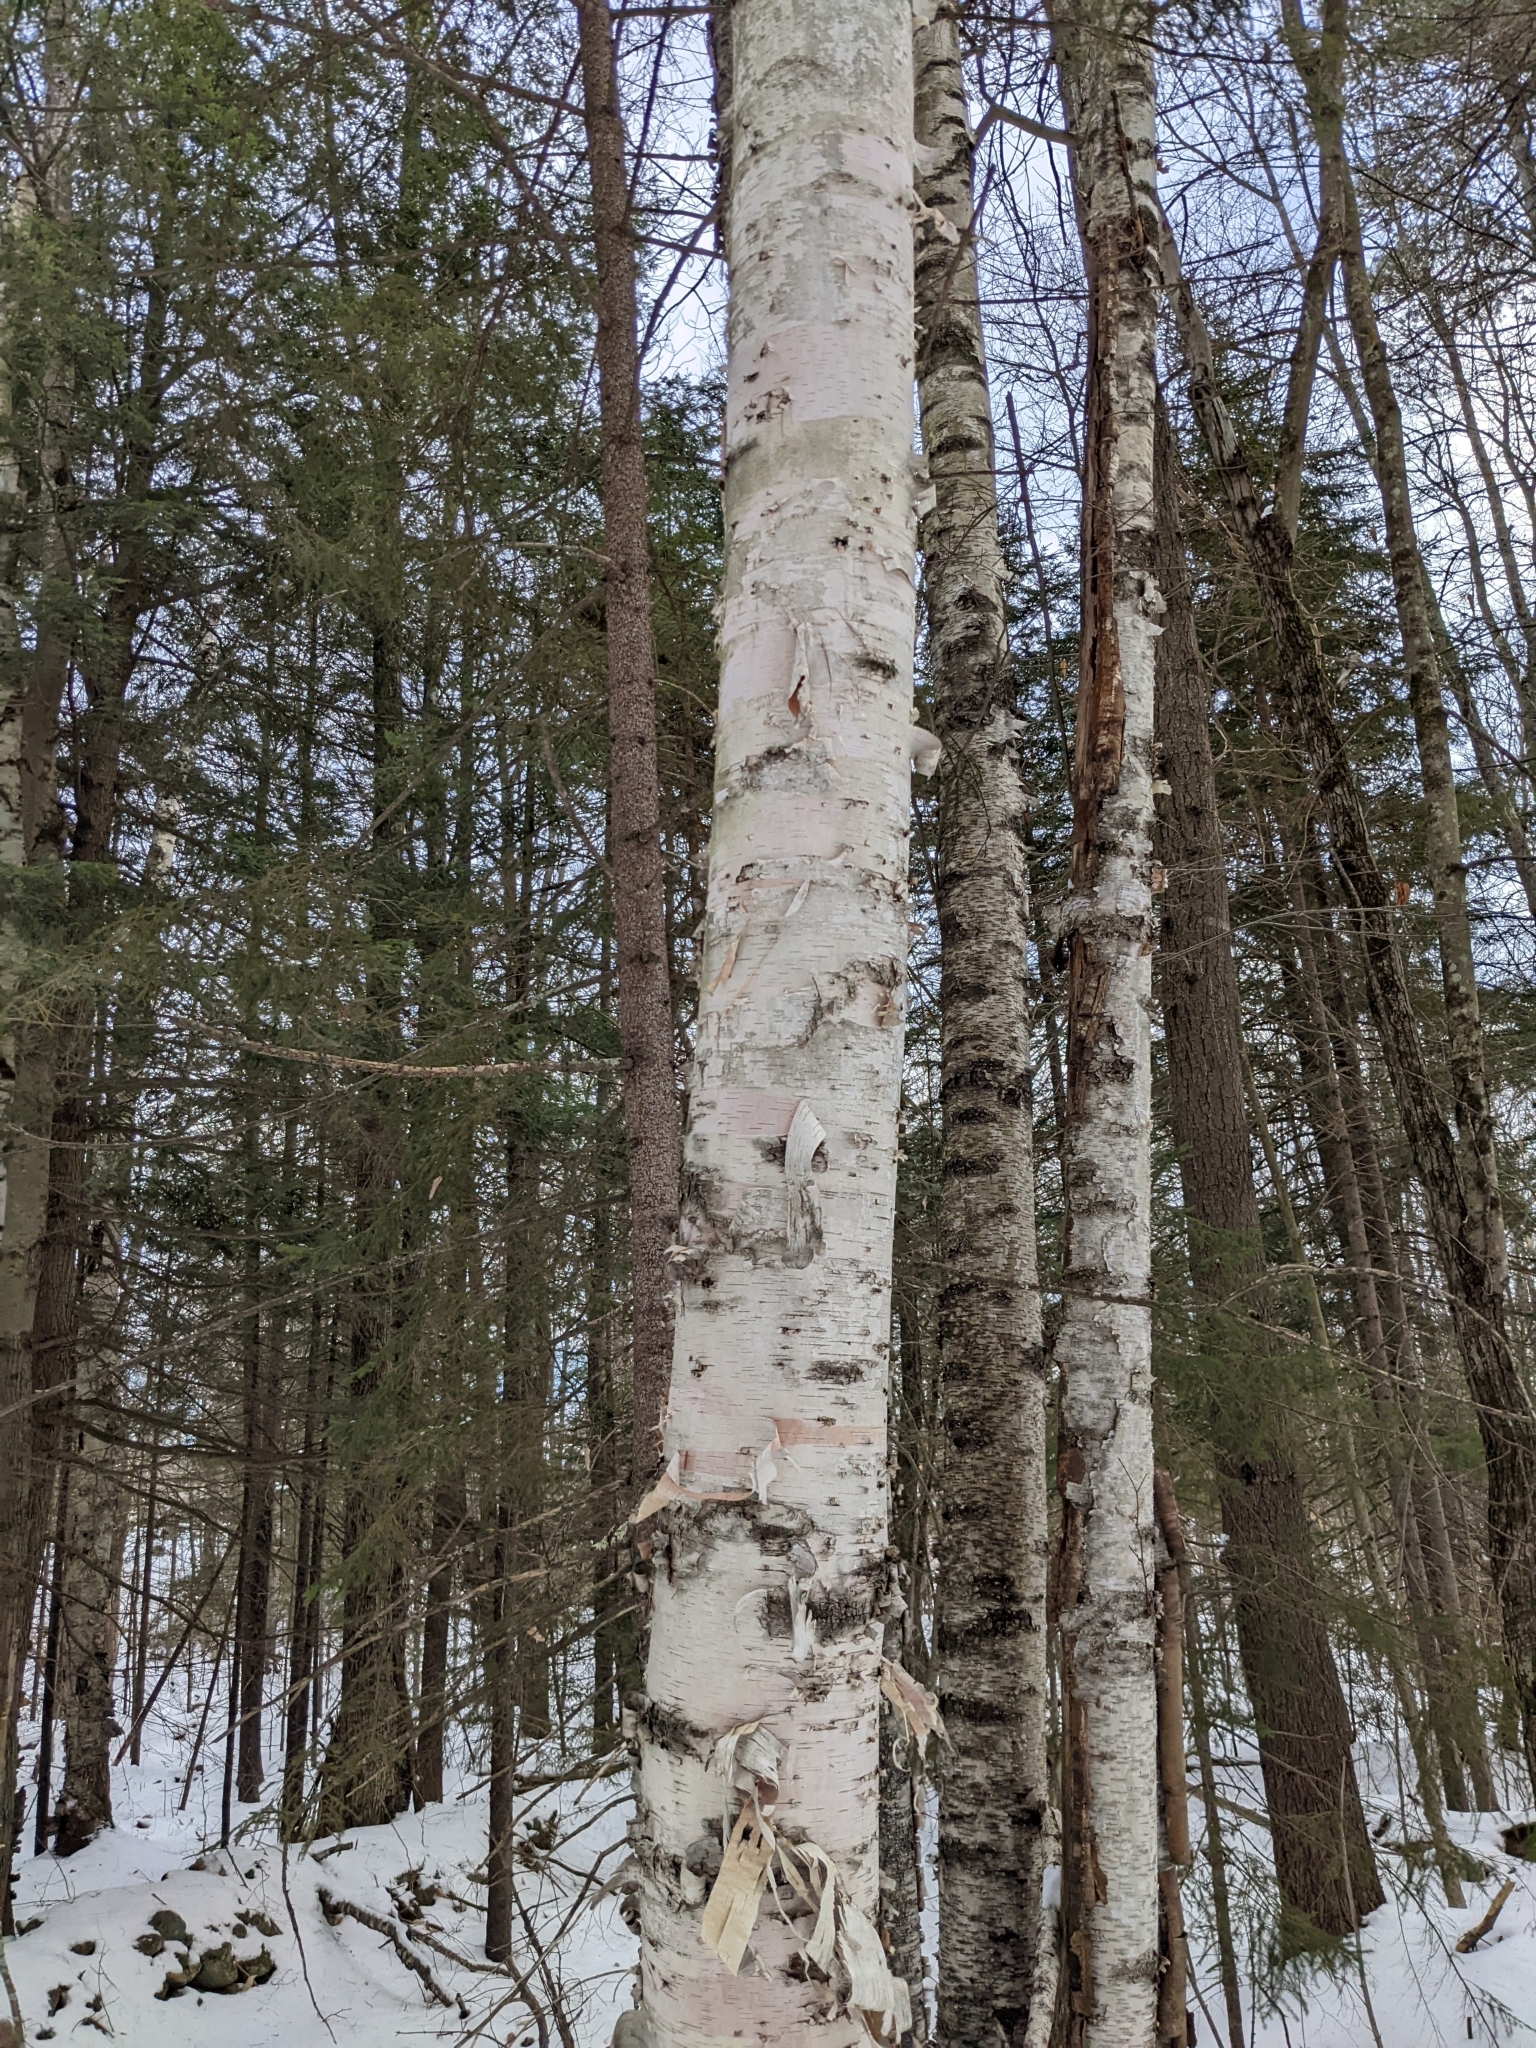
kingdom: Plantae
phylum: Tracheophyta
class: Magnoliopsida
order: Fagales
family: Betulaceae
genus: Betula
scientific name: Betula papyrifera
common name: Paper birch
